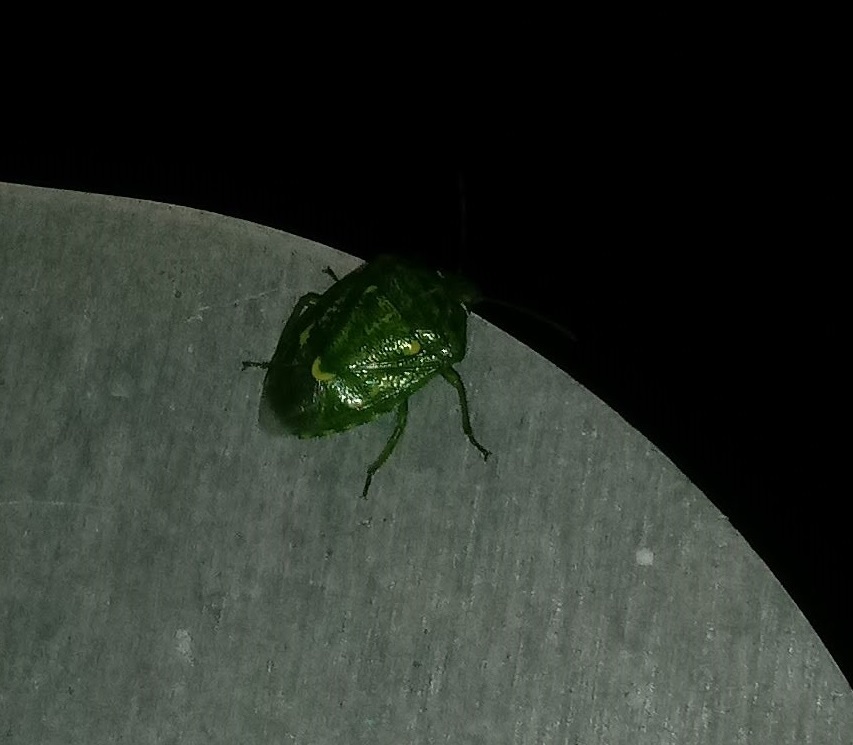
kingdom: Animalia
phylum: Arthropoda
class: Insecta
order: Hemiptera
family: Pentatomidae
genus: Banasa
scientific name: Banasa euchlora
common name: Cedar berry bug
